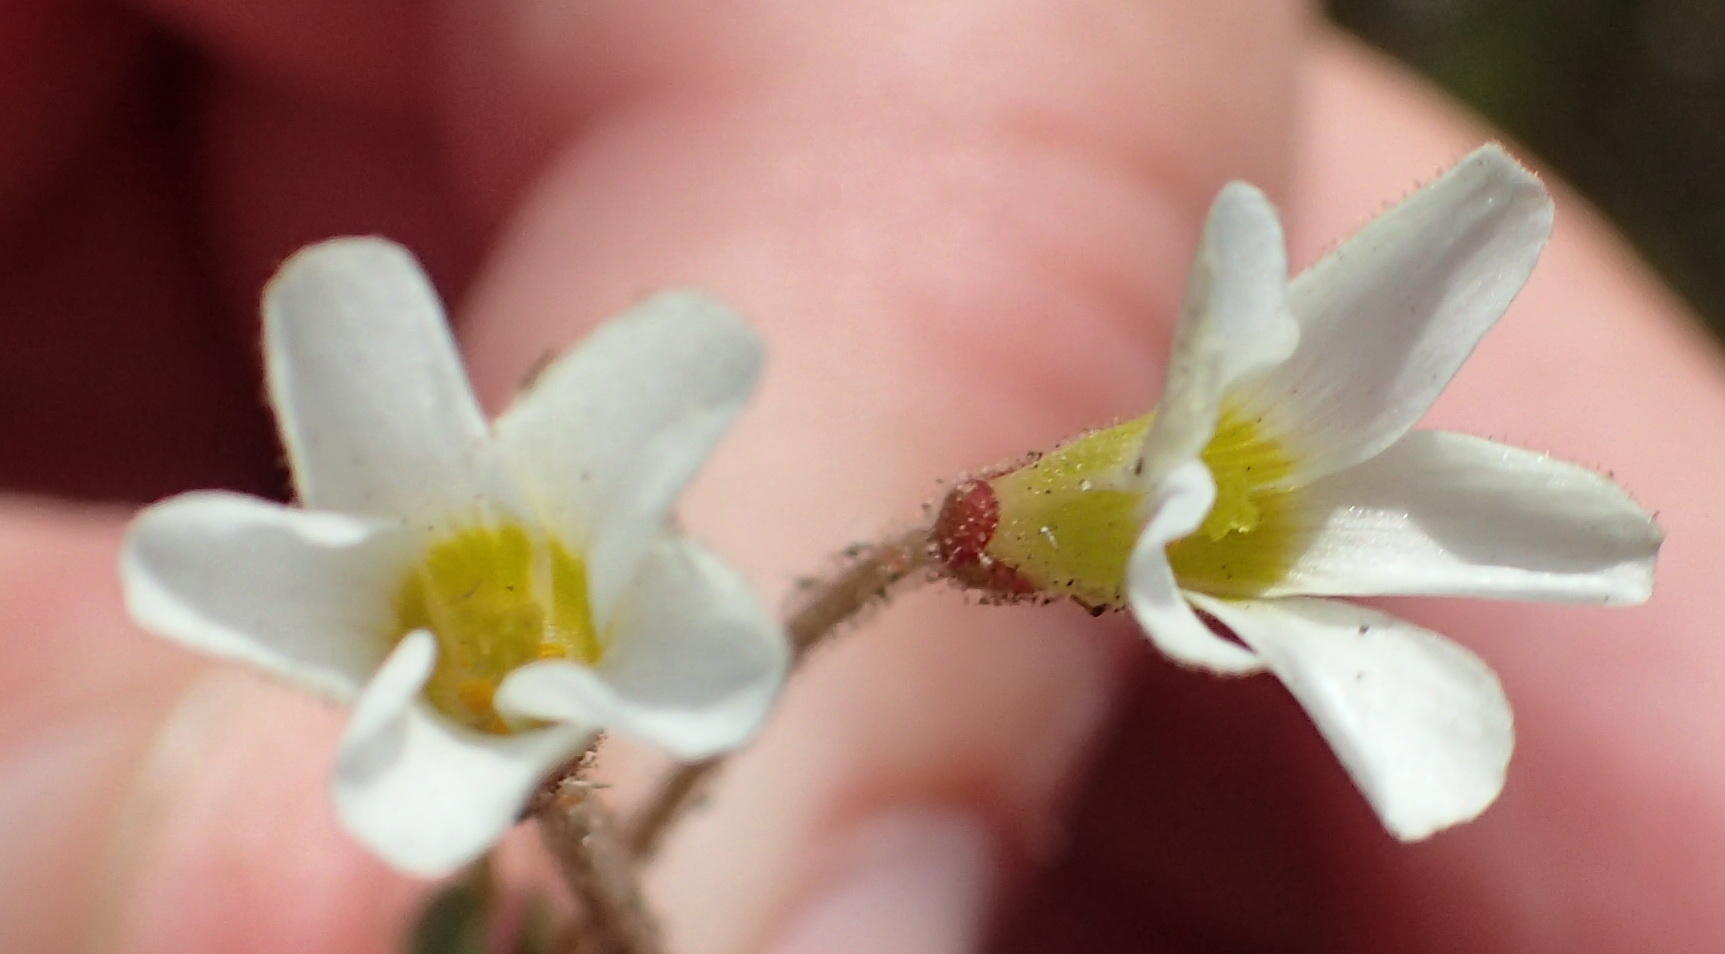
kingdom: Plantae
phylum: Tracheophyta
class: Magnoliopsida
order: Oxalidales
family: Oxalidaceae
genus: Oxalis
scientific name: Oxalis punctata
